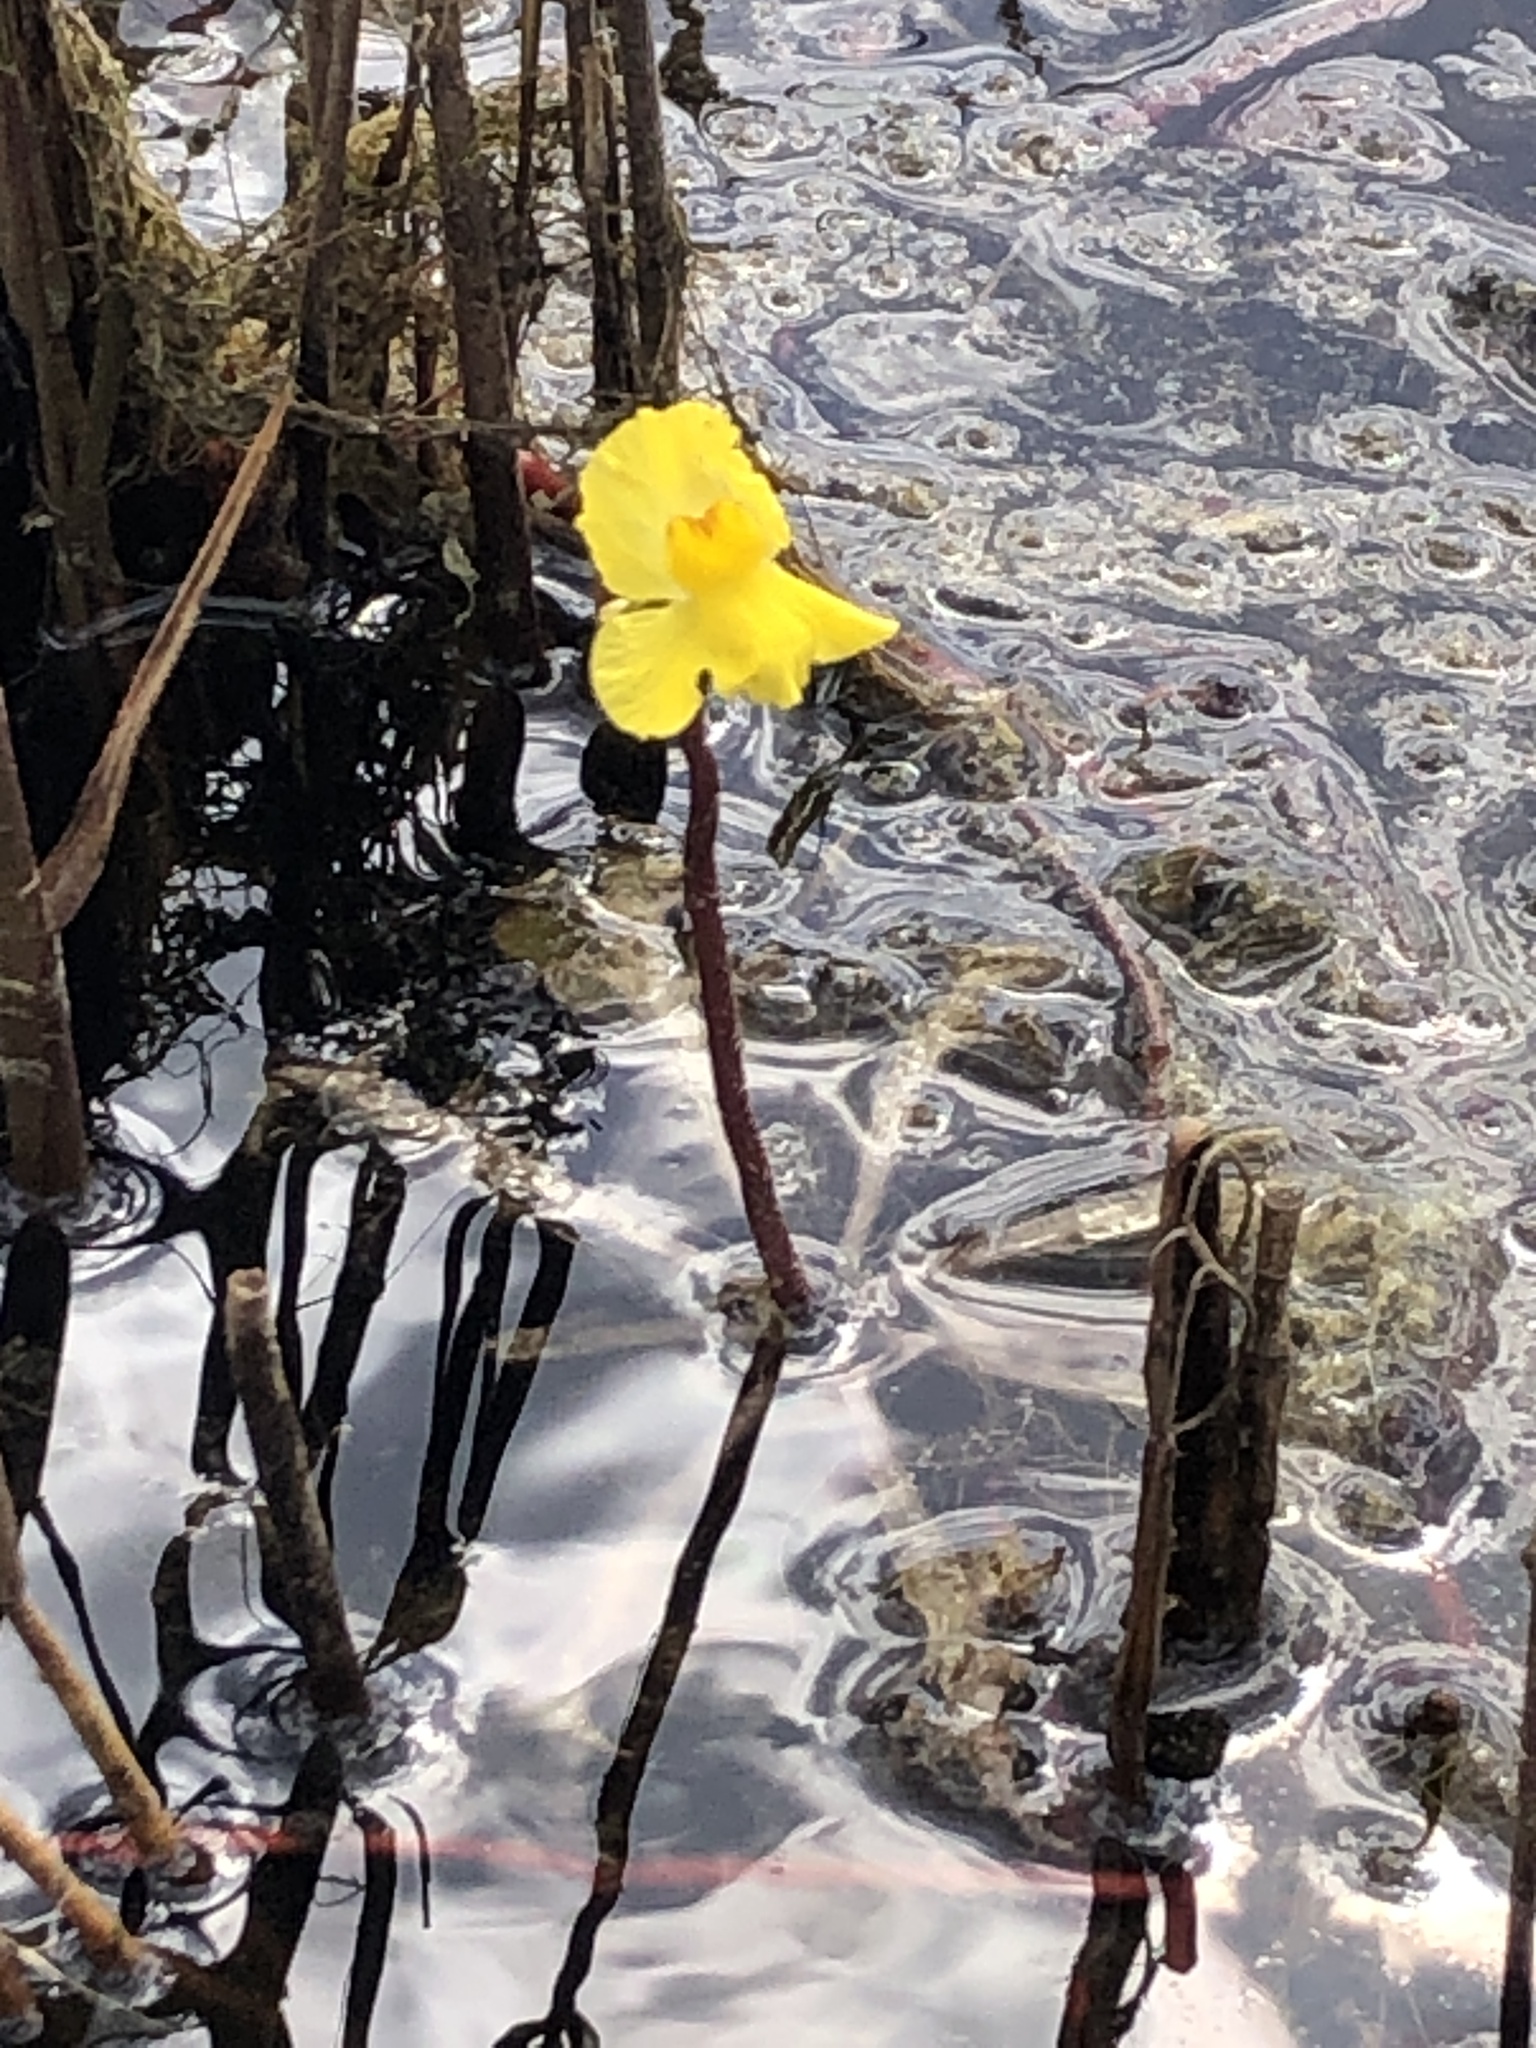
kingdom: Plantae
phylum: Tracheophyta
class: Magnoliopsida
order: Lamiales
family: Lentibulariaceae
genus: Utricularia
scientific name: Utricularia inflata
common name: Floating bladderwort
